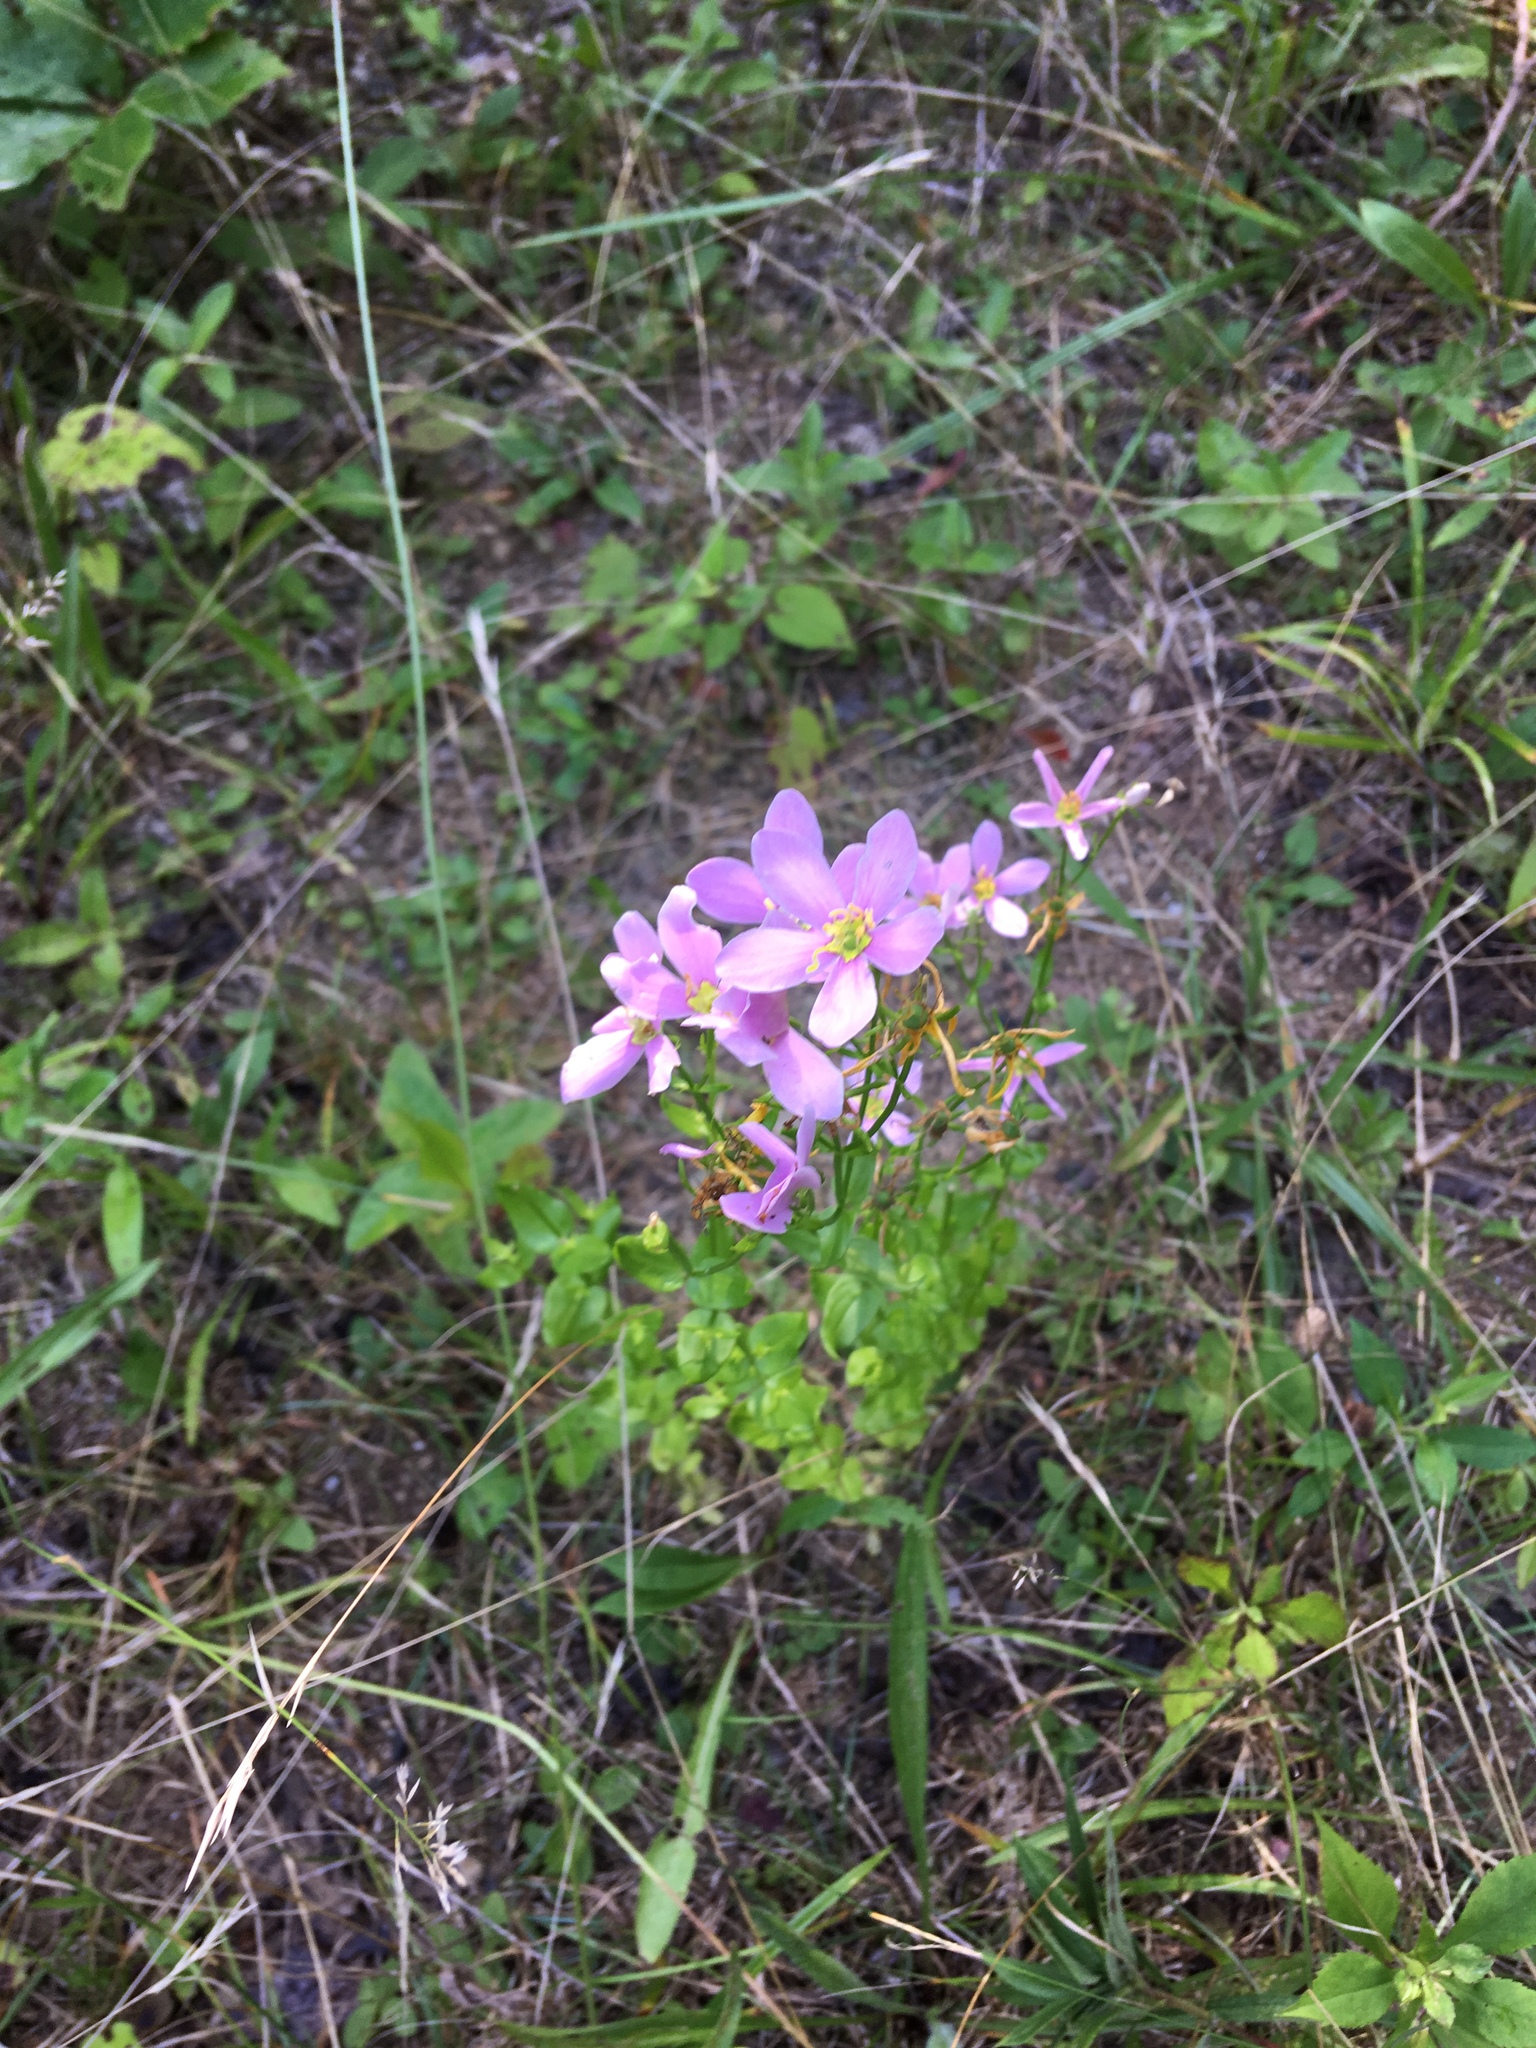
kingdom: Plantae
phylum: Tracheophyta
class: Magnoliopsida
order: Gentianales
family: Gentianaceae
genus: Sabatia
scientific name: Sabatia angularis
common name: Rose-pink
